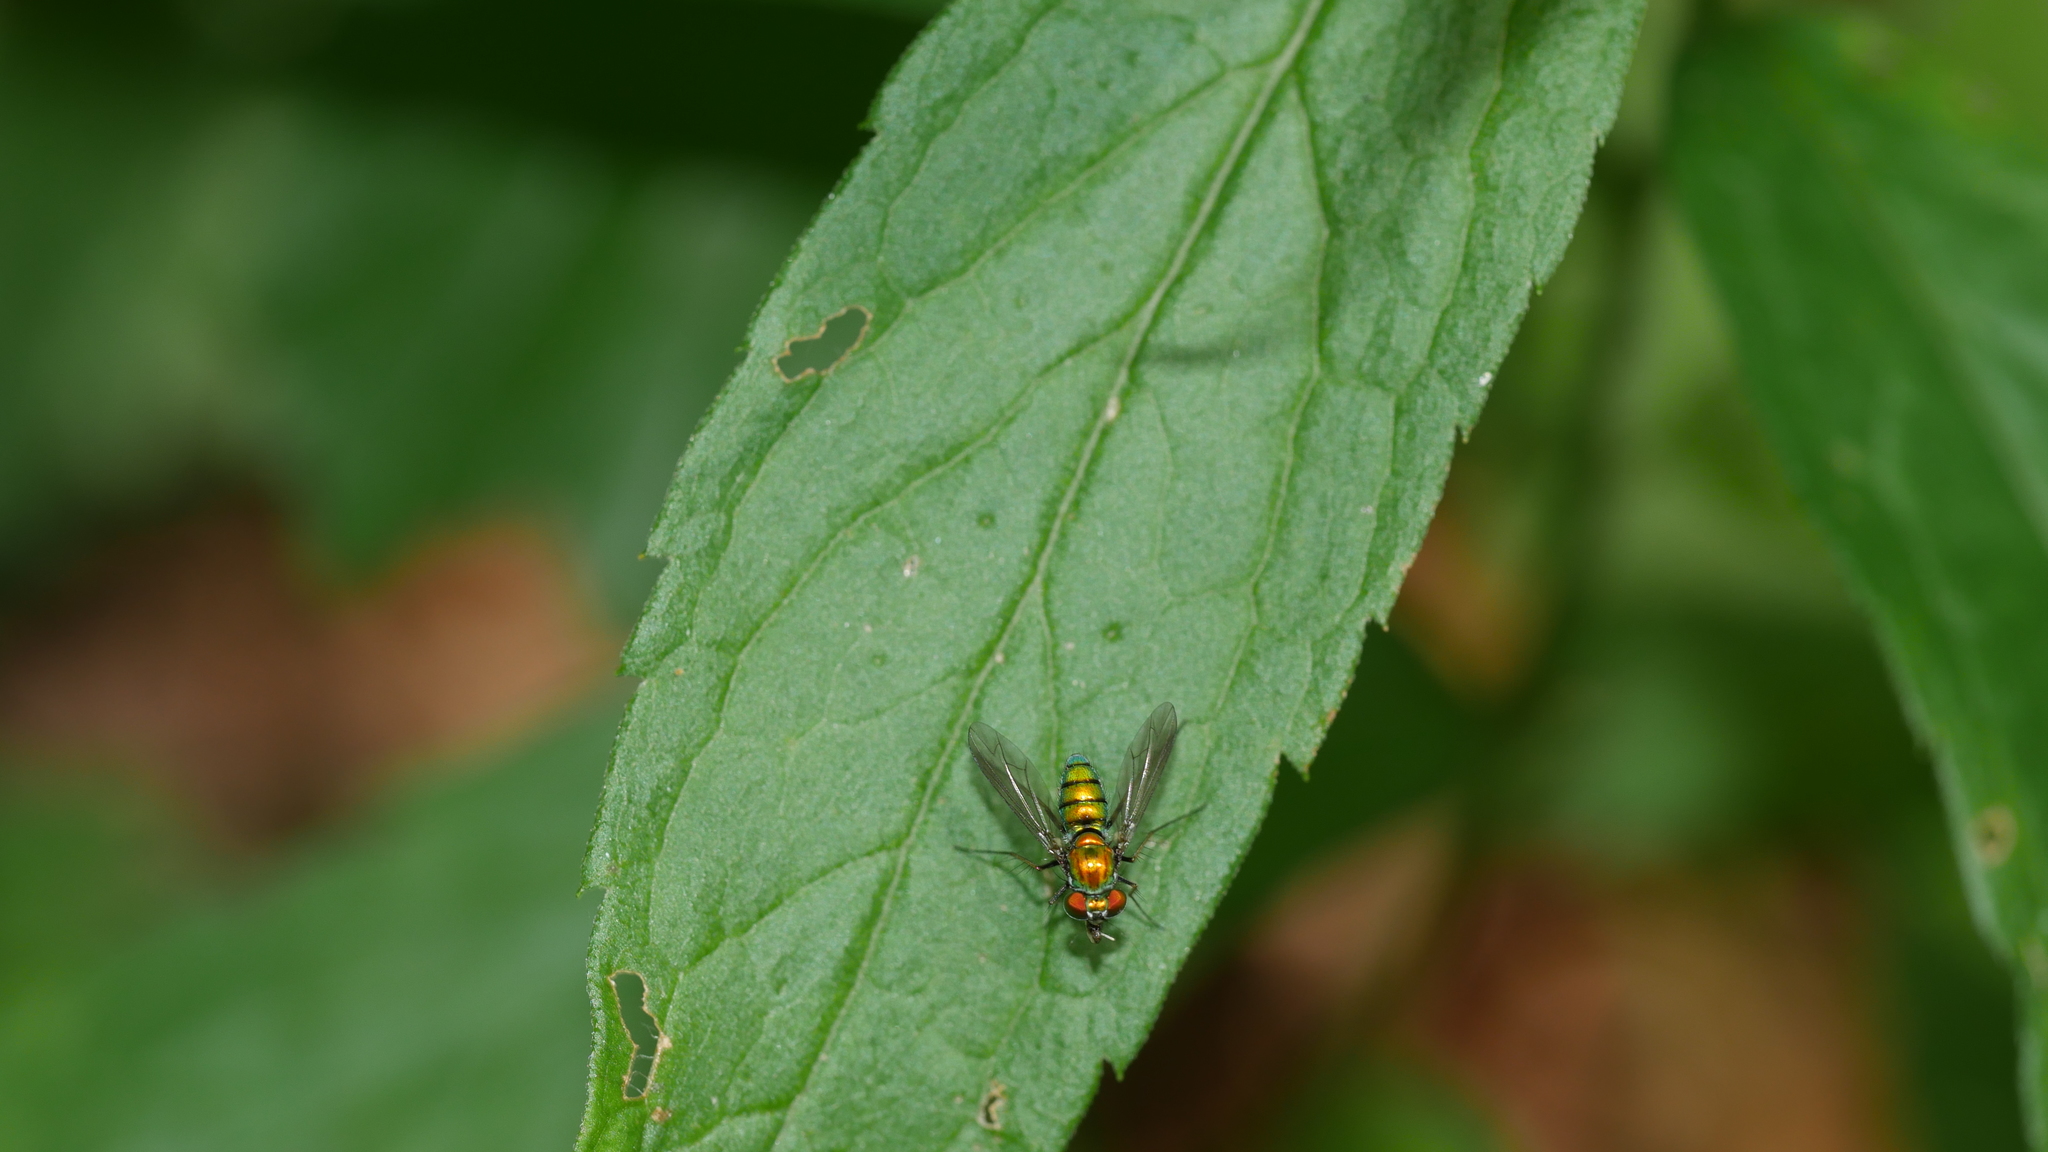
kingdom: Animalia
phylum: Arthropoda
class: Insecta
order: Diptera
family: Dolichopodidae
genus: Condylostylus
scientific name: Condylostylus
